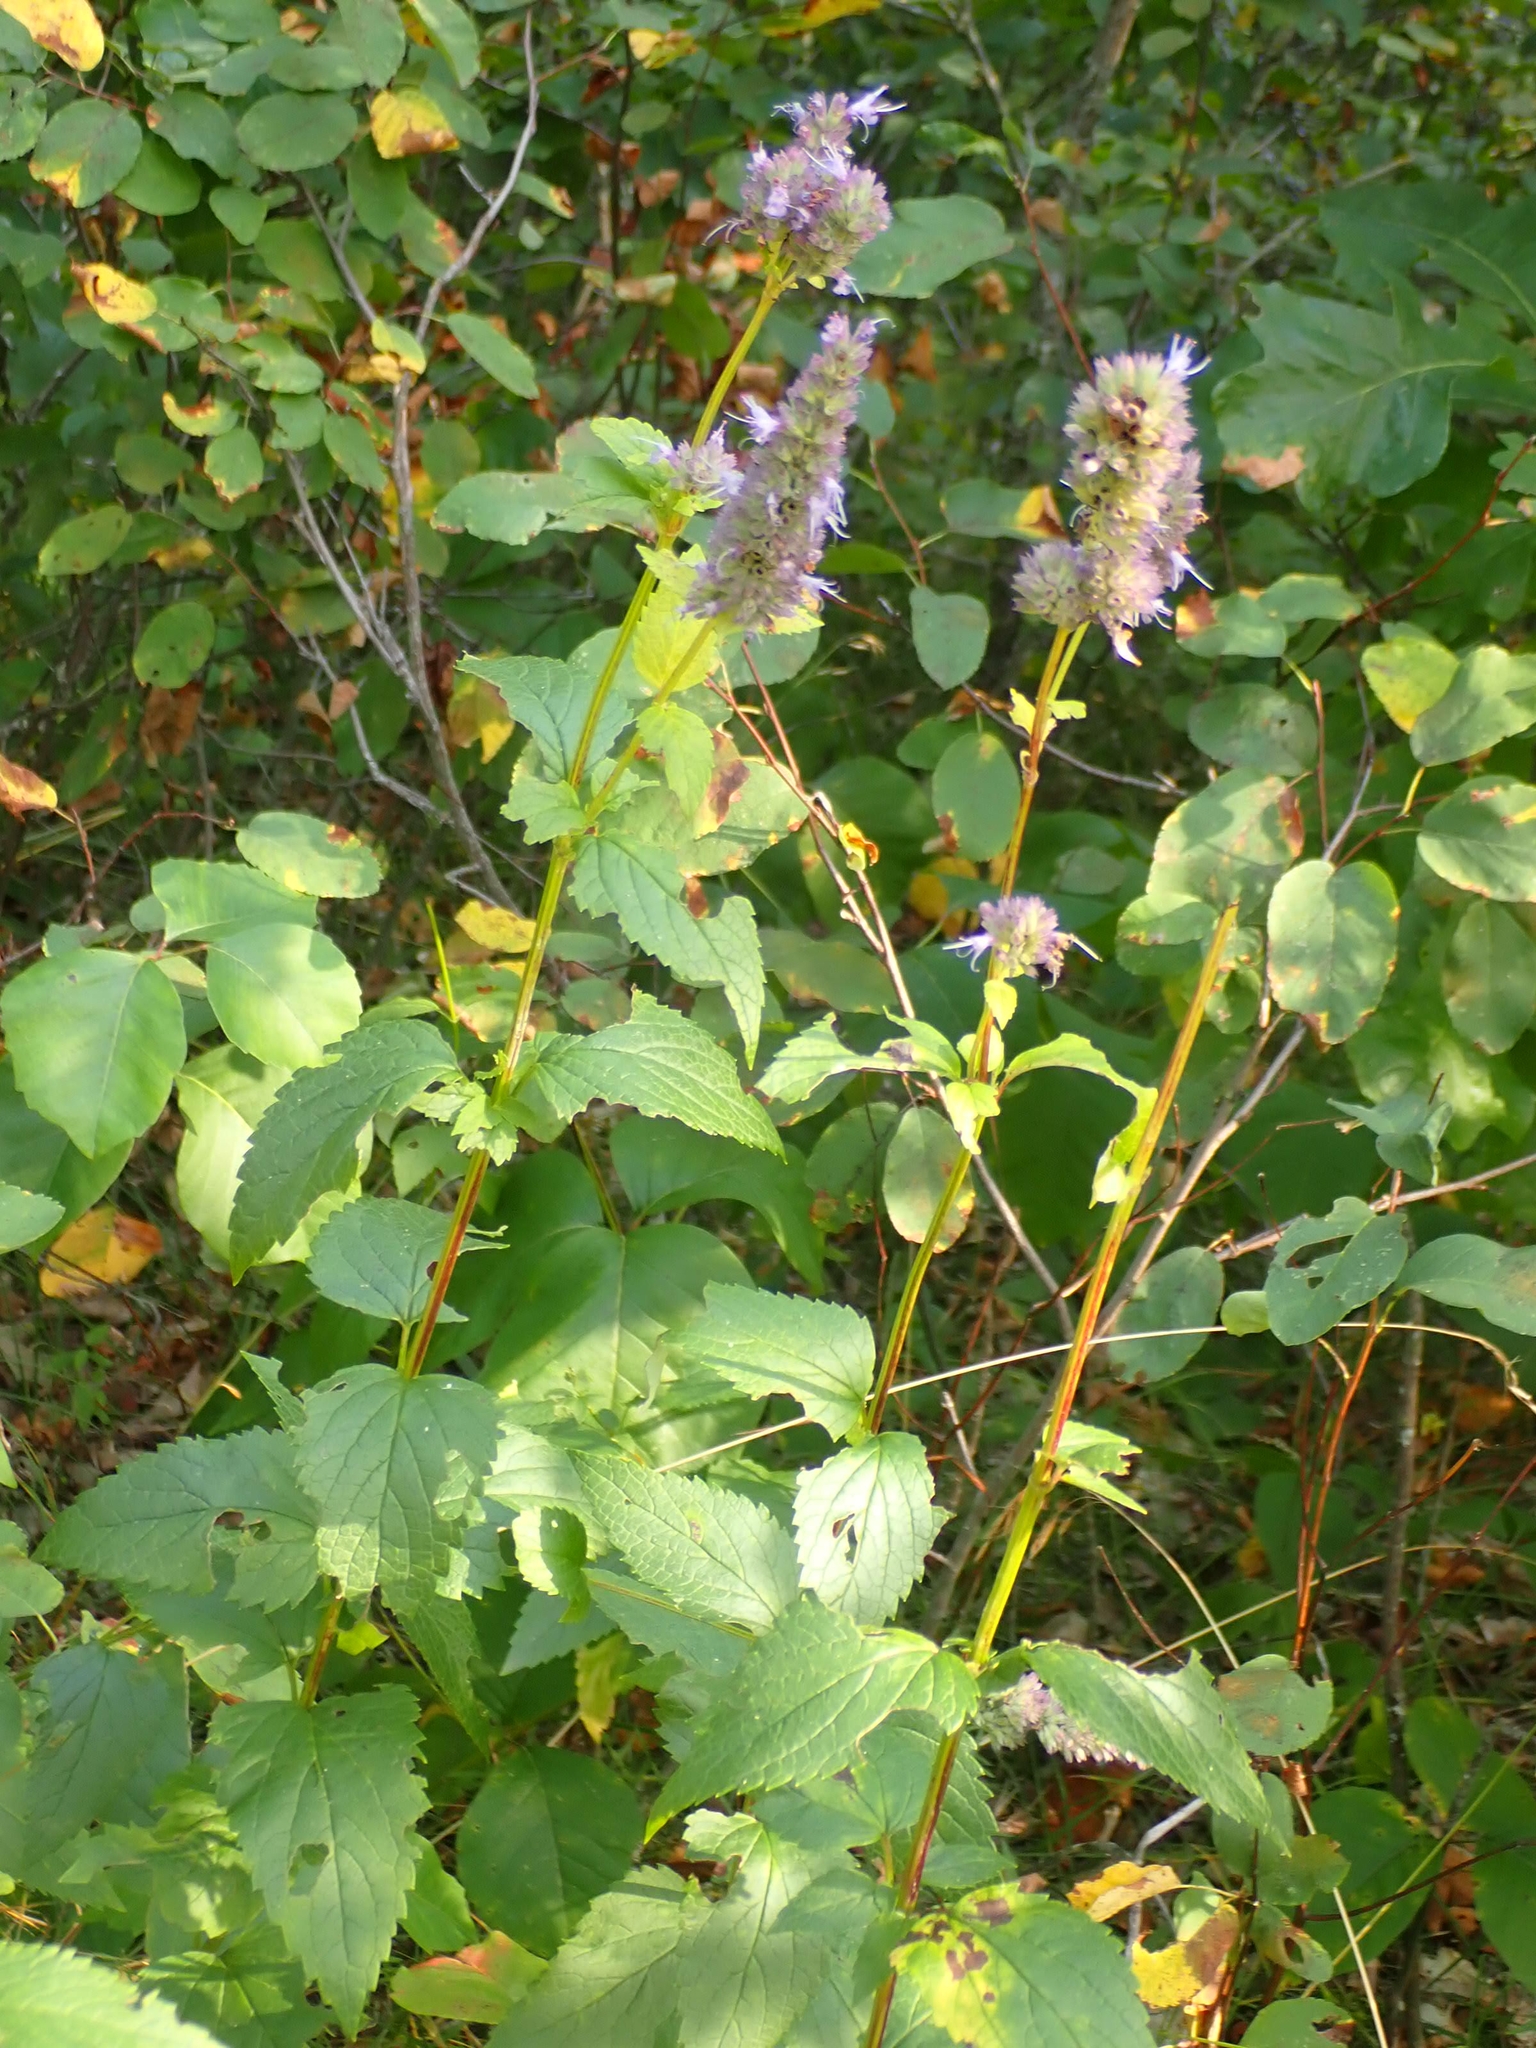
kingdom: Plantae
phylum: Tracheophyta
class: Magnoliopsida
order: Lamiales
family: Lamiaceae
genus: Agastache
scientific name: Agastache foeniculum
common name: Anise hyssop
